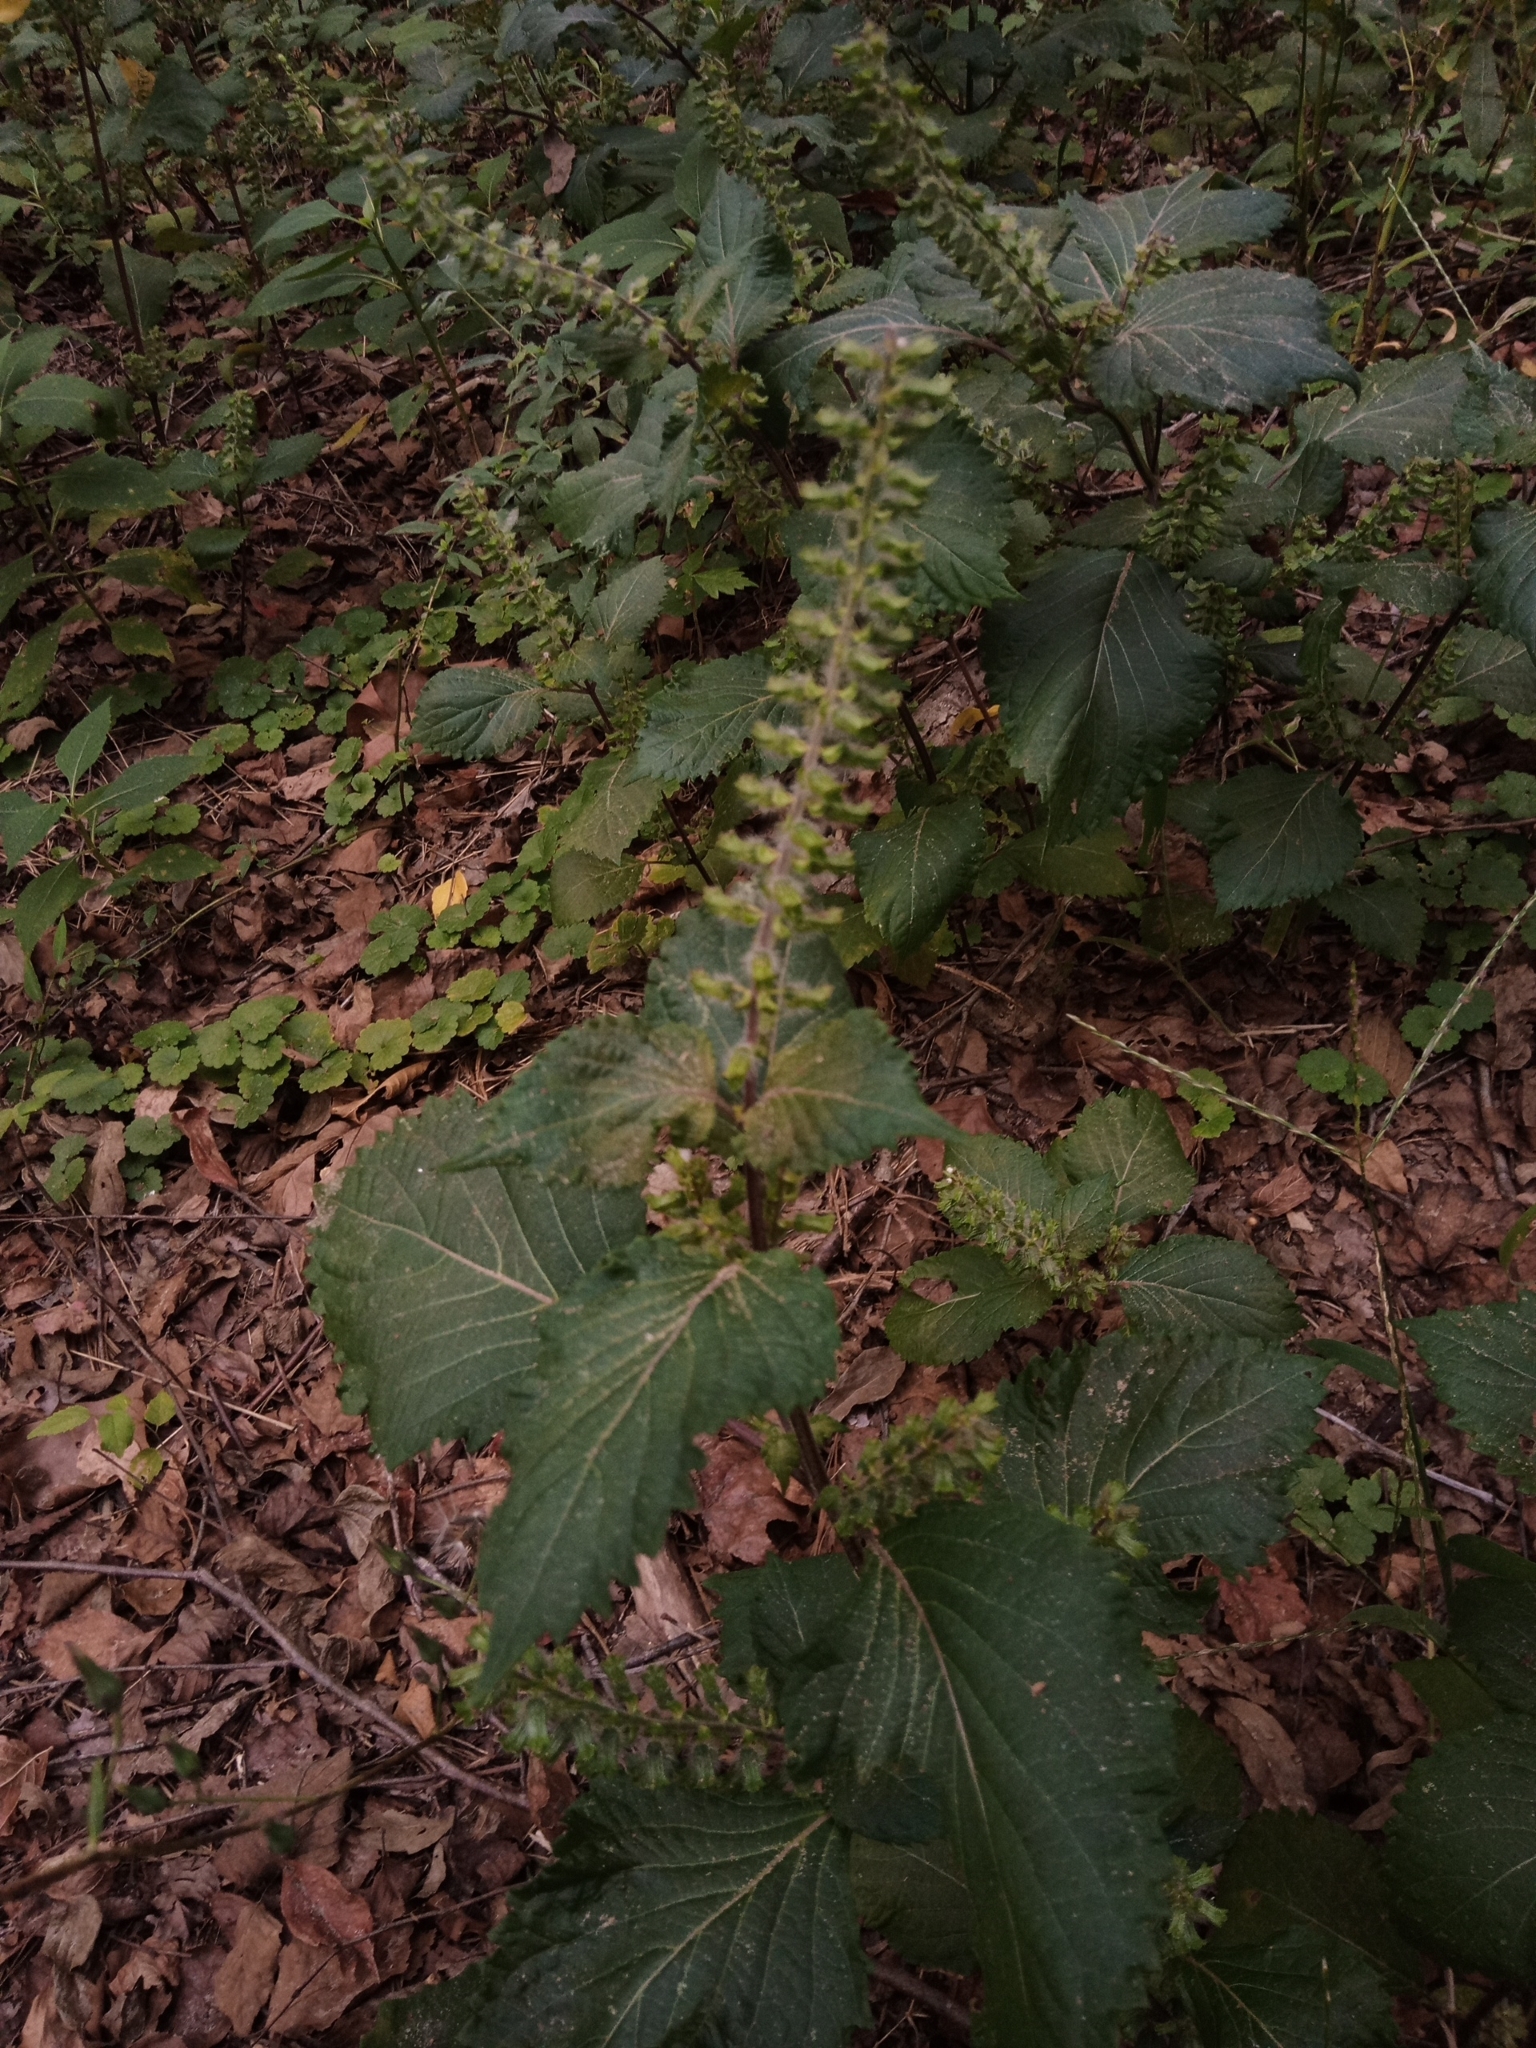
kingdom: Plantae
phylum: Tracheophyta
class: Magnoliopsida
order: Lamiales
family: Lamiaceae
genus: Perilla
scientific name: Perilla frutescens
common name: Perilla
